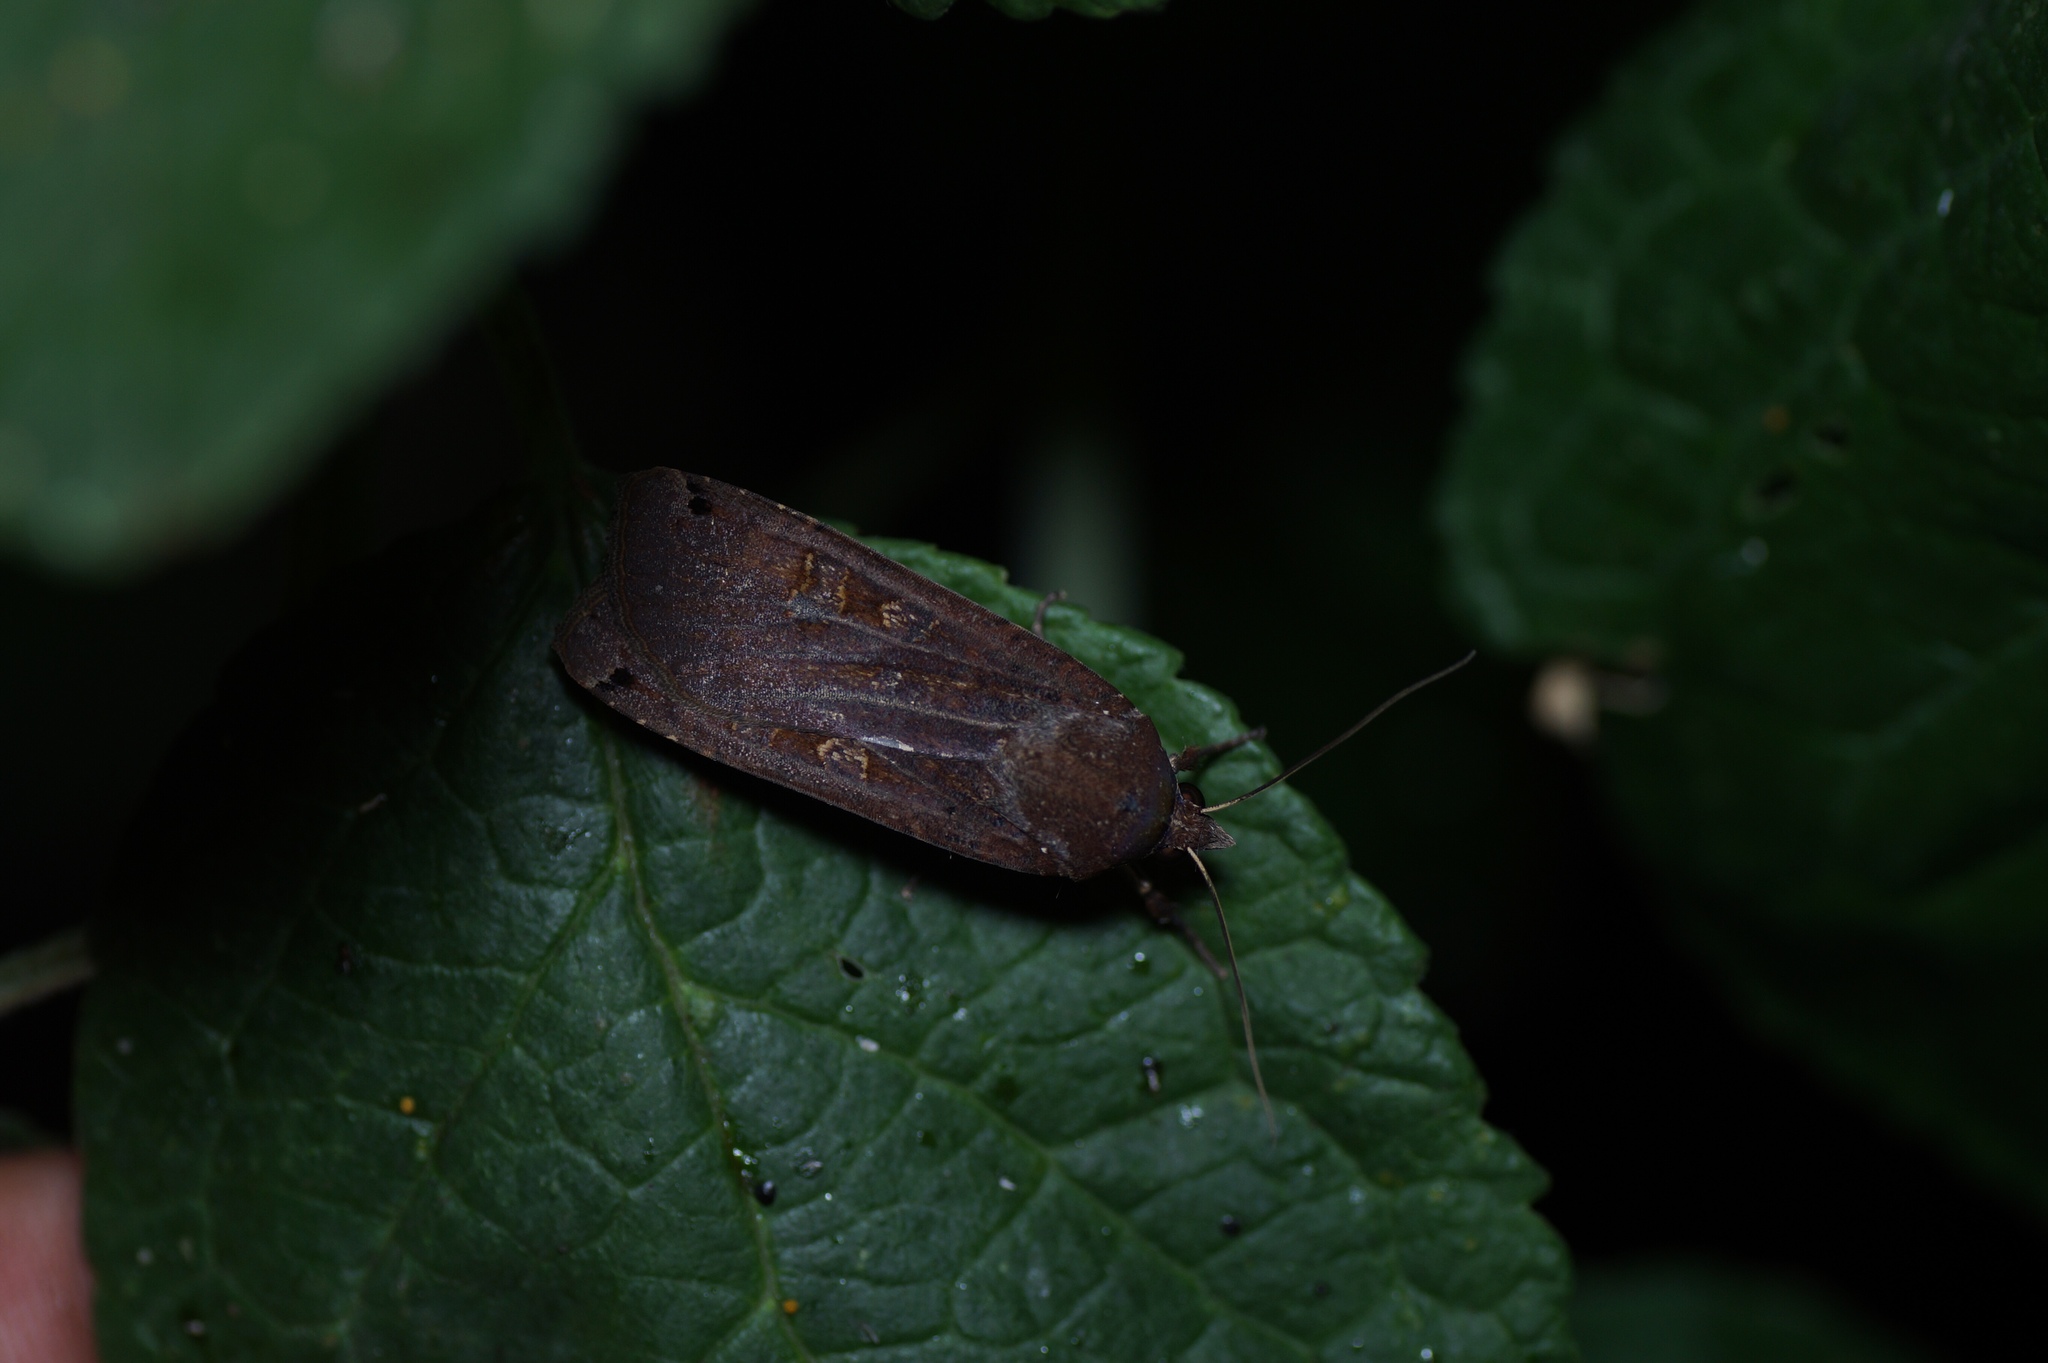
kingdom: Animalia
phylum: Arthropoda
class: Insecta
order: Lepidoptera
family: Noctuidae
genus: Noctua
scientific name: Noctua pronuba
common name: Large yellow underwing
